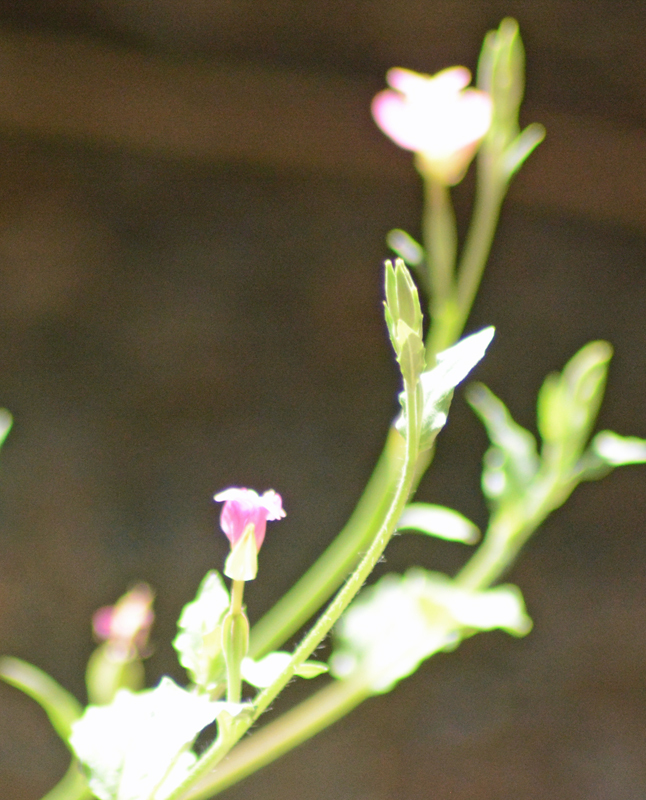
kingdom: Plantae
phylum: Tracheophyta
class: Magnoliopsida
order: Myrtales
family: Onagraceae
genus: Oenothera
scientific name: Oenothera rosea
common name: Rosy evening-primrose
